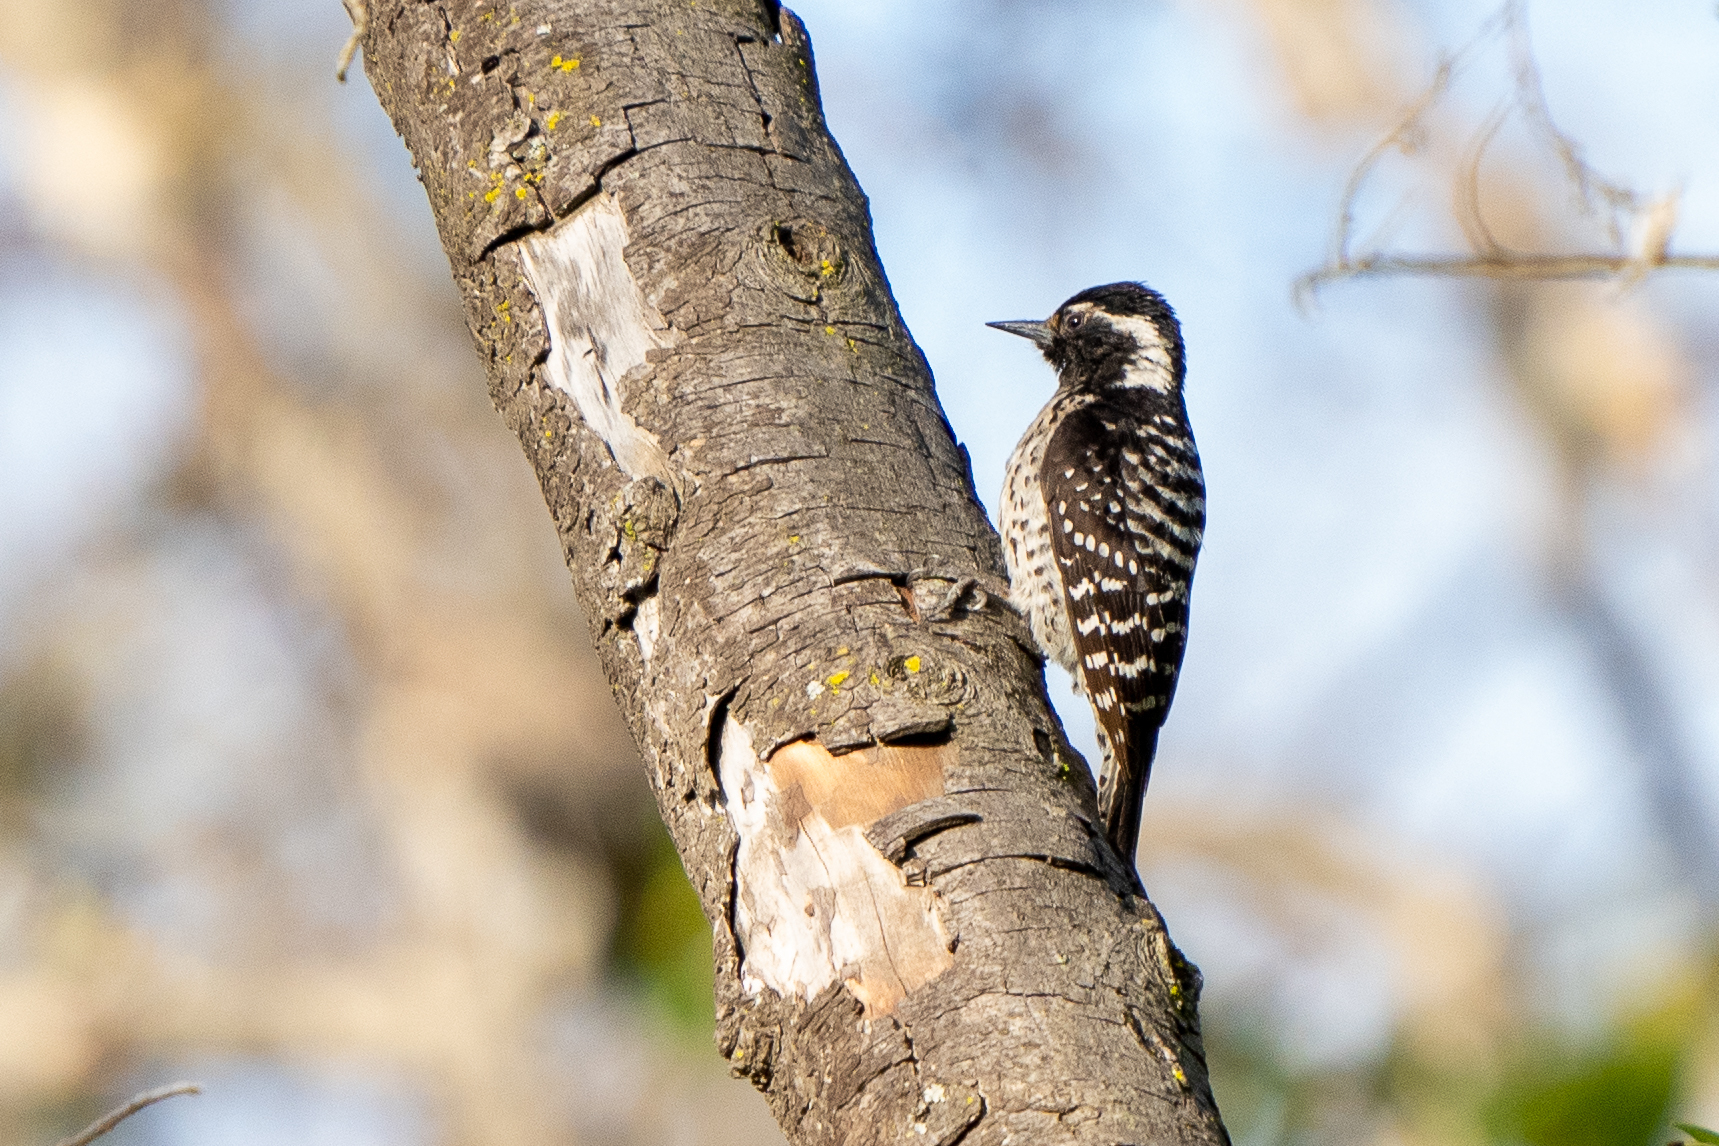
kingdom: Animalia
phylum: Chordata
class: Aves
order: Piciformes
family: Picidae
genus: Dryobates
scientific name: Dryobates nuttallii
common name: Nuttall's woodpecker
